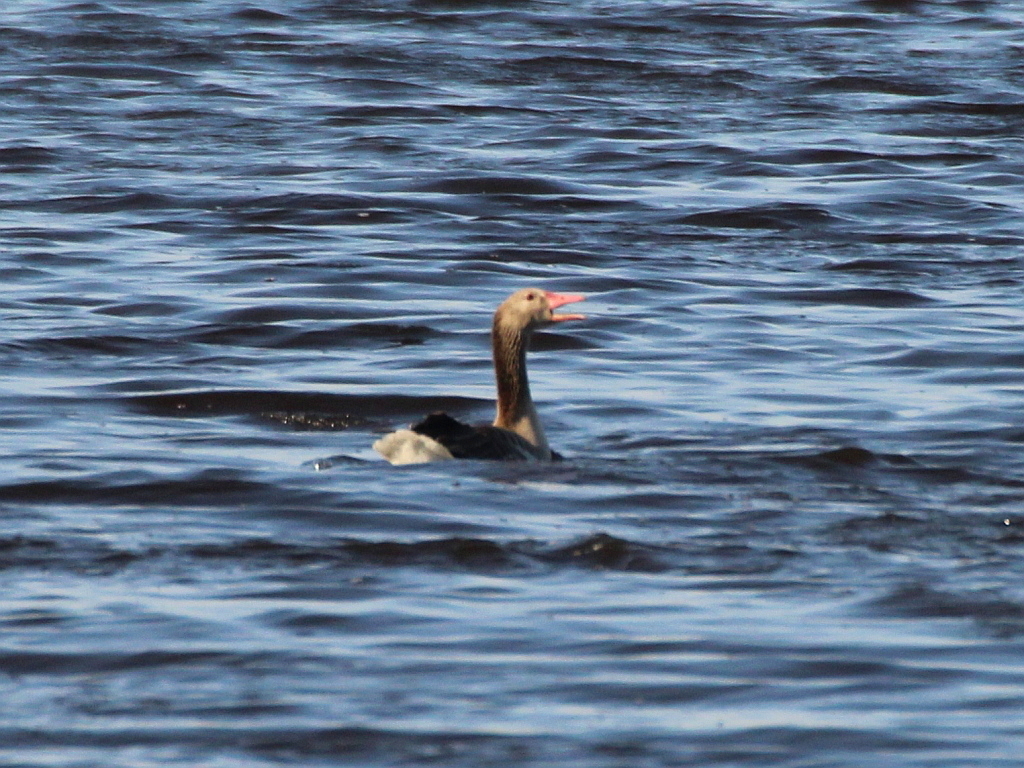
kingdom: Animalia
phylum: Chordata
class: Aves
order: Anseriformes
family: Anatidae
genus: Anser
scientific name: Anser anser
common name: Greylag goose
